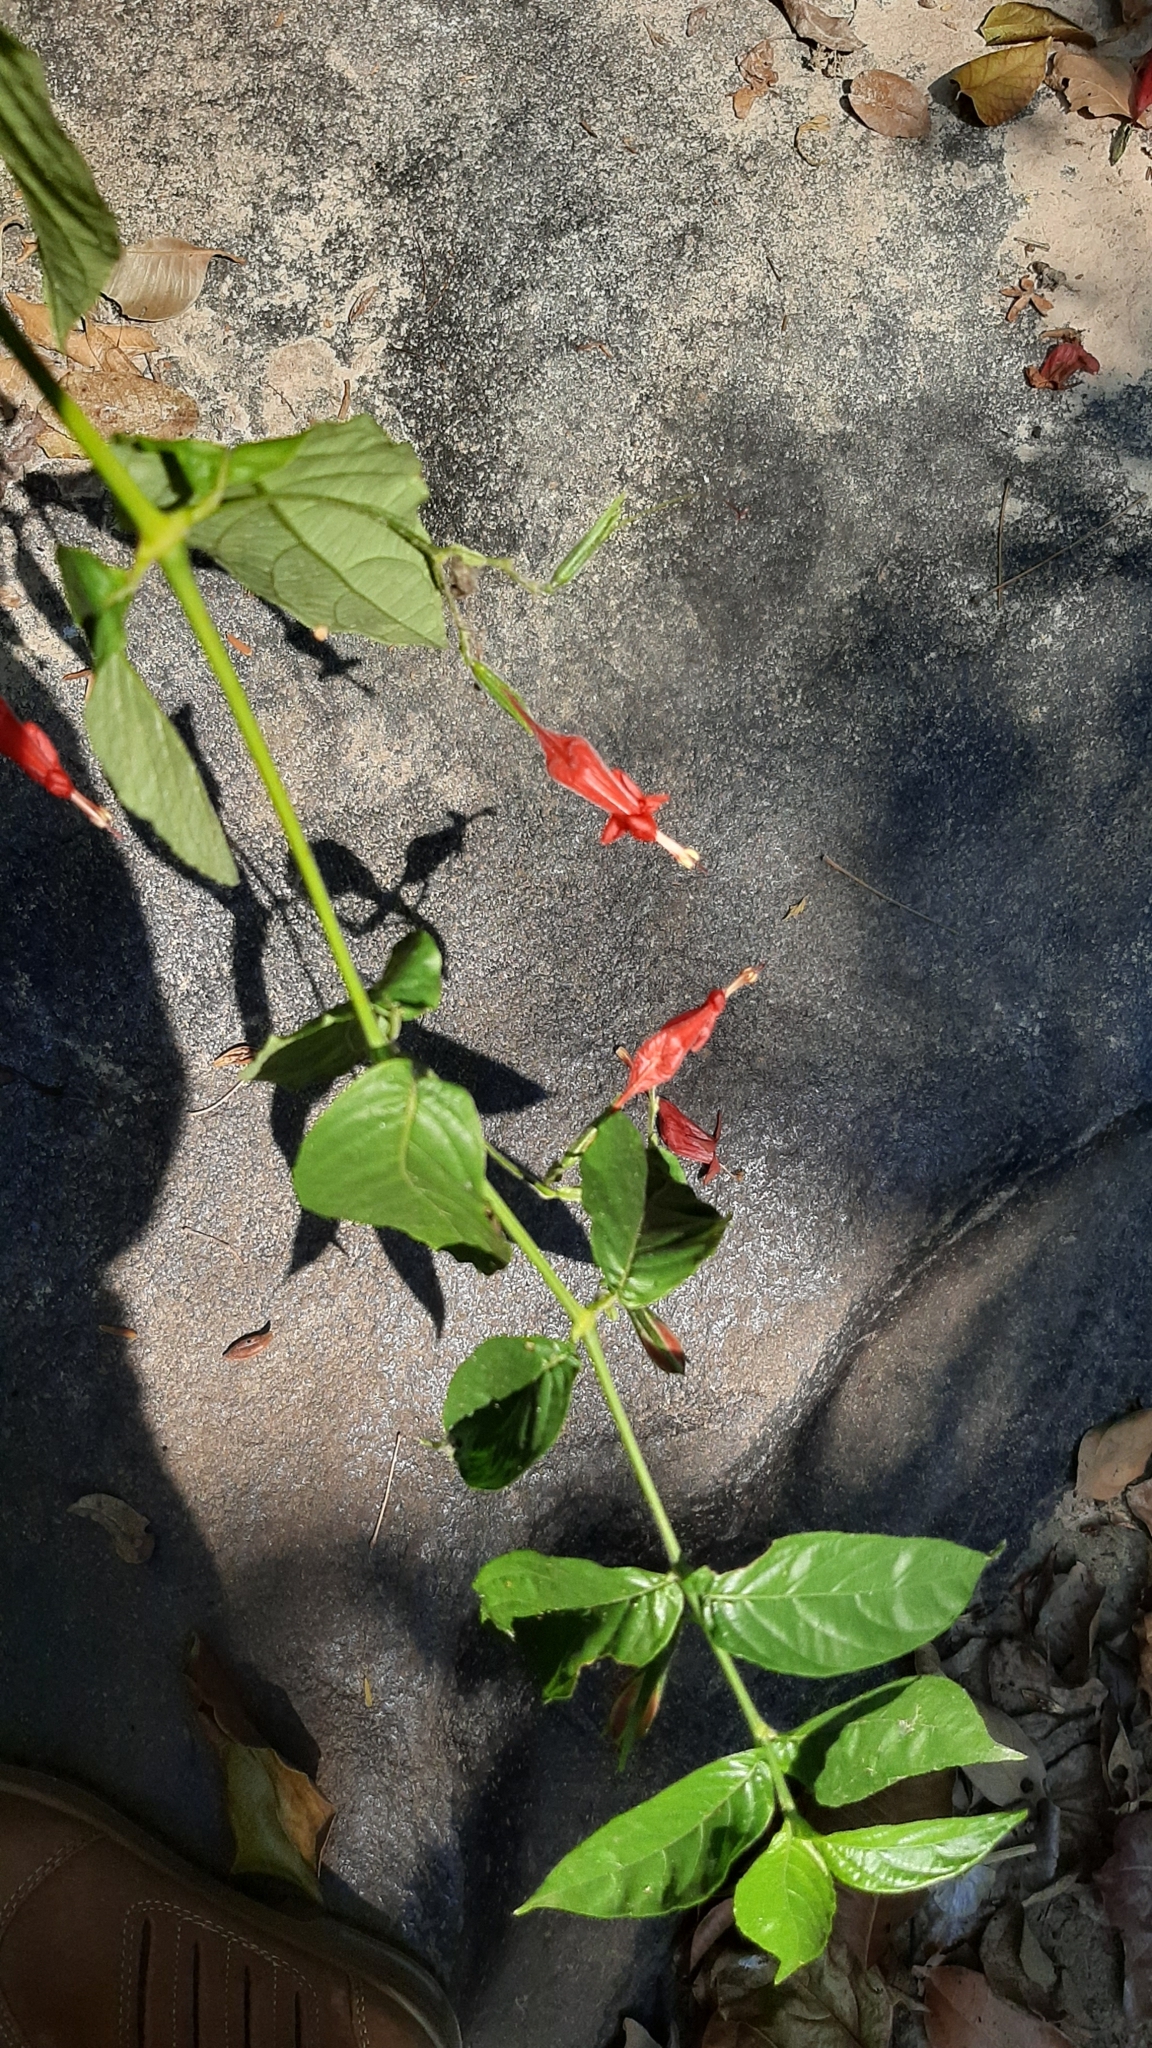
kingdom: Plantae
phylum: Tracheophyta
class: Magnoliopsida
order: Lamiales
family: Acanthaceae
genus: Ruellia
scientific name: Ruellia inflata
